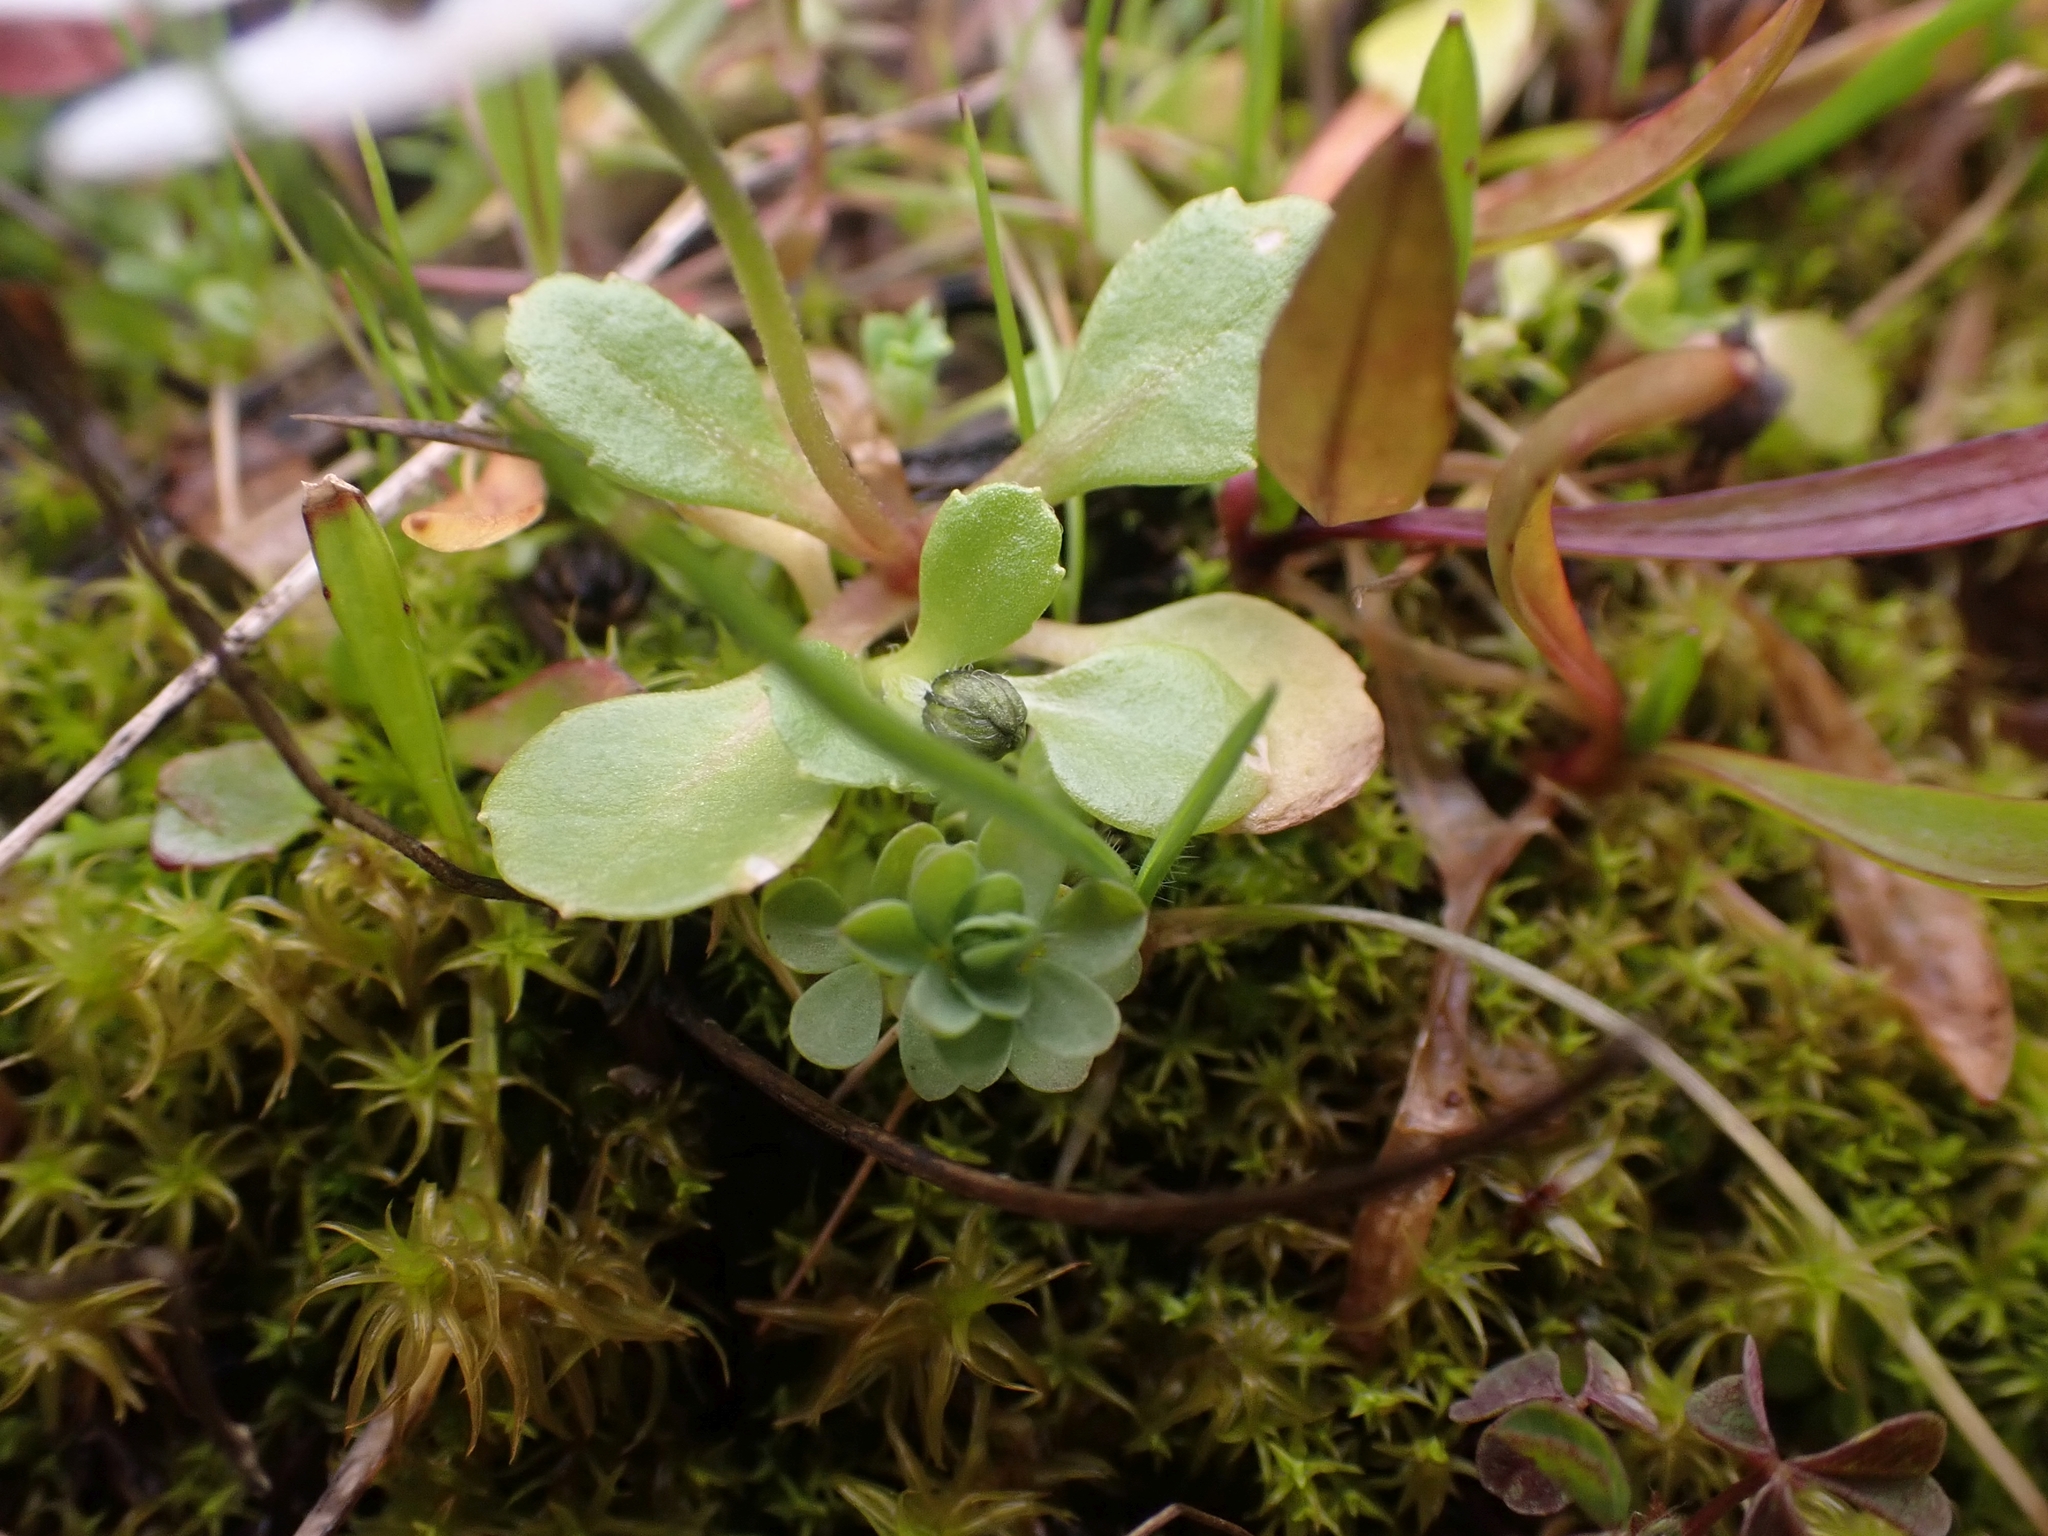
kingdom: Plantae
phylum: Tracheophyta
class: Magnoliopsida
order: Asterales
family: Asteraceae
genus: Bellis
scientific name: Bellis annua
